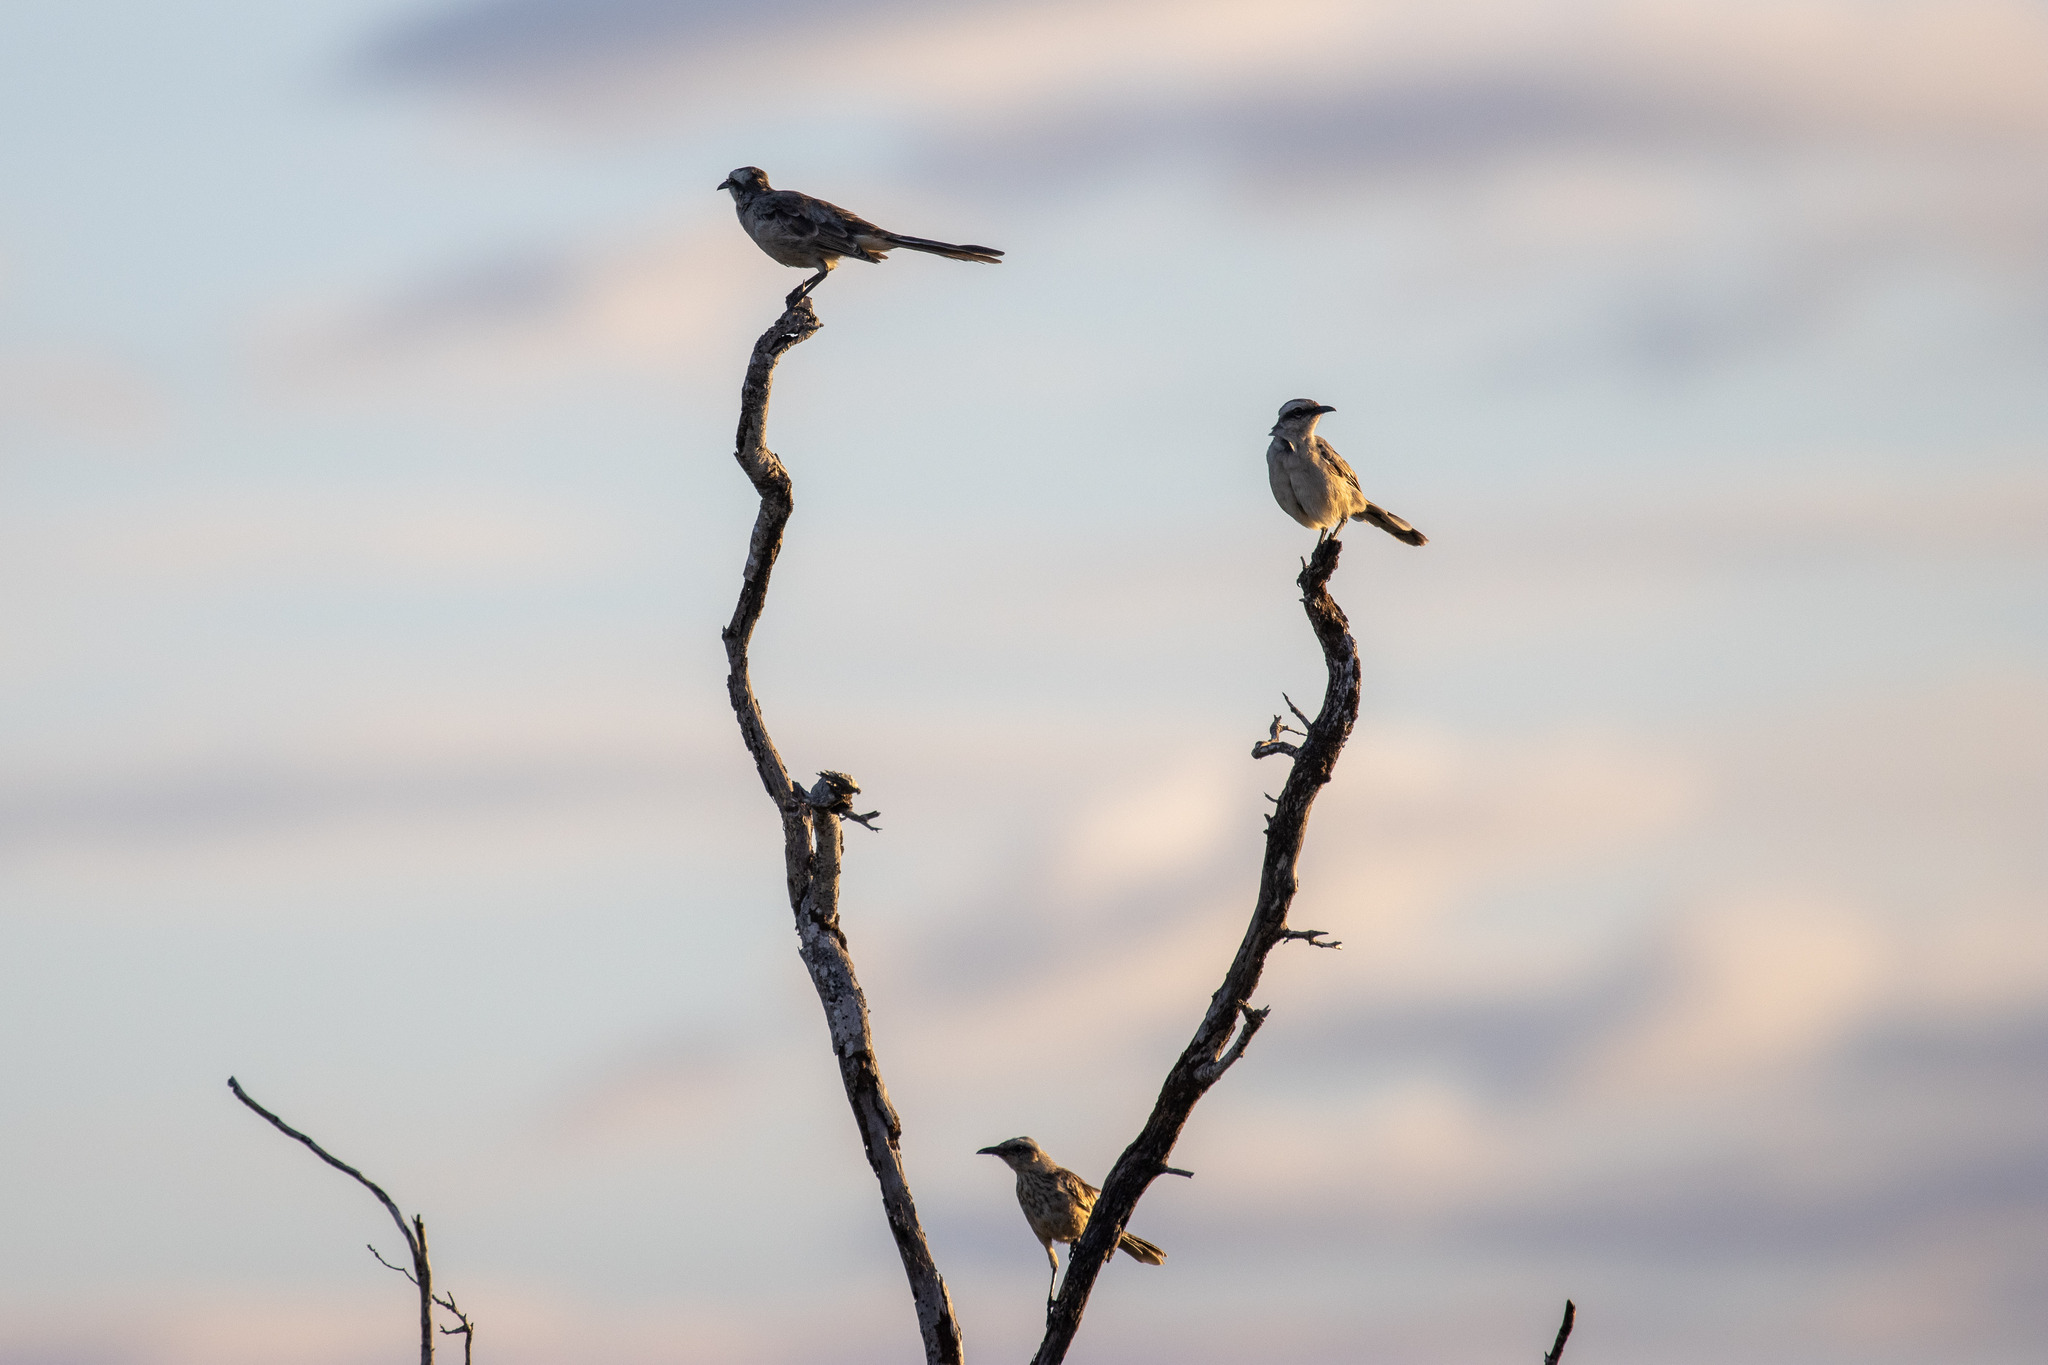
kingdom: Animalia
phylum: Chordata
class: Aves
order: Passeriformes
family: Mimidae
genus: Mimus
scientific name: Mimus saturninus
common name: Chalk-browed mockingbird
